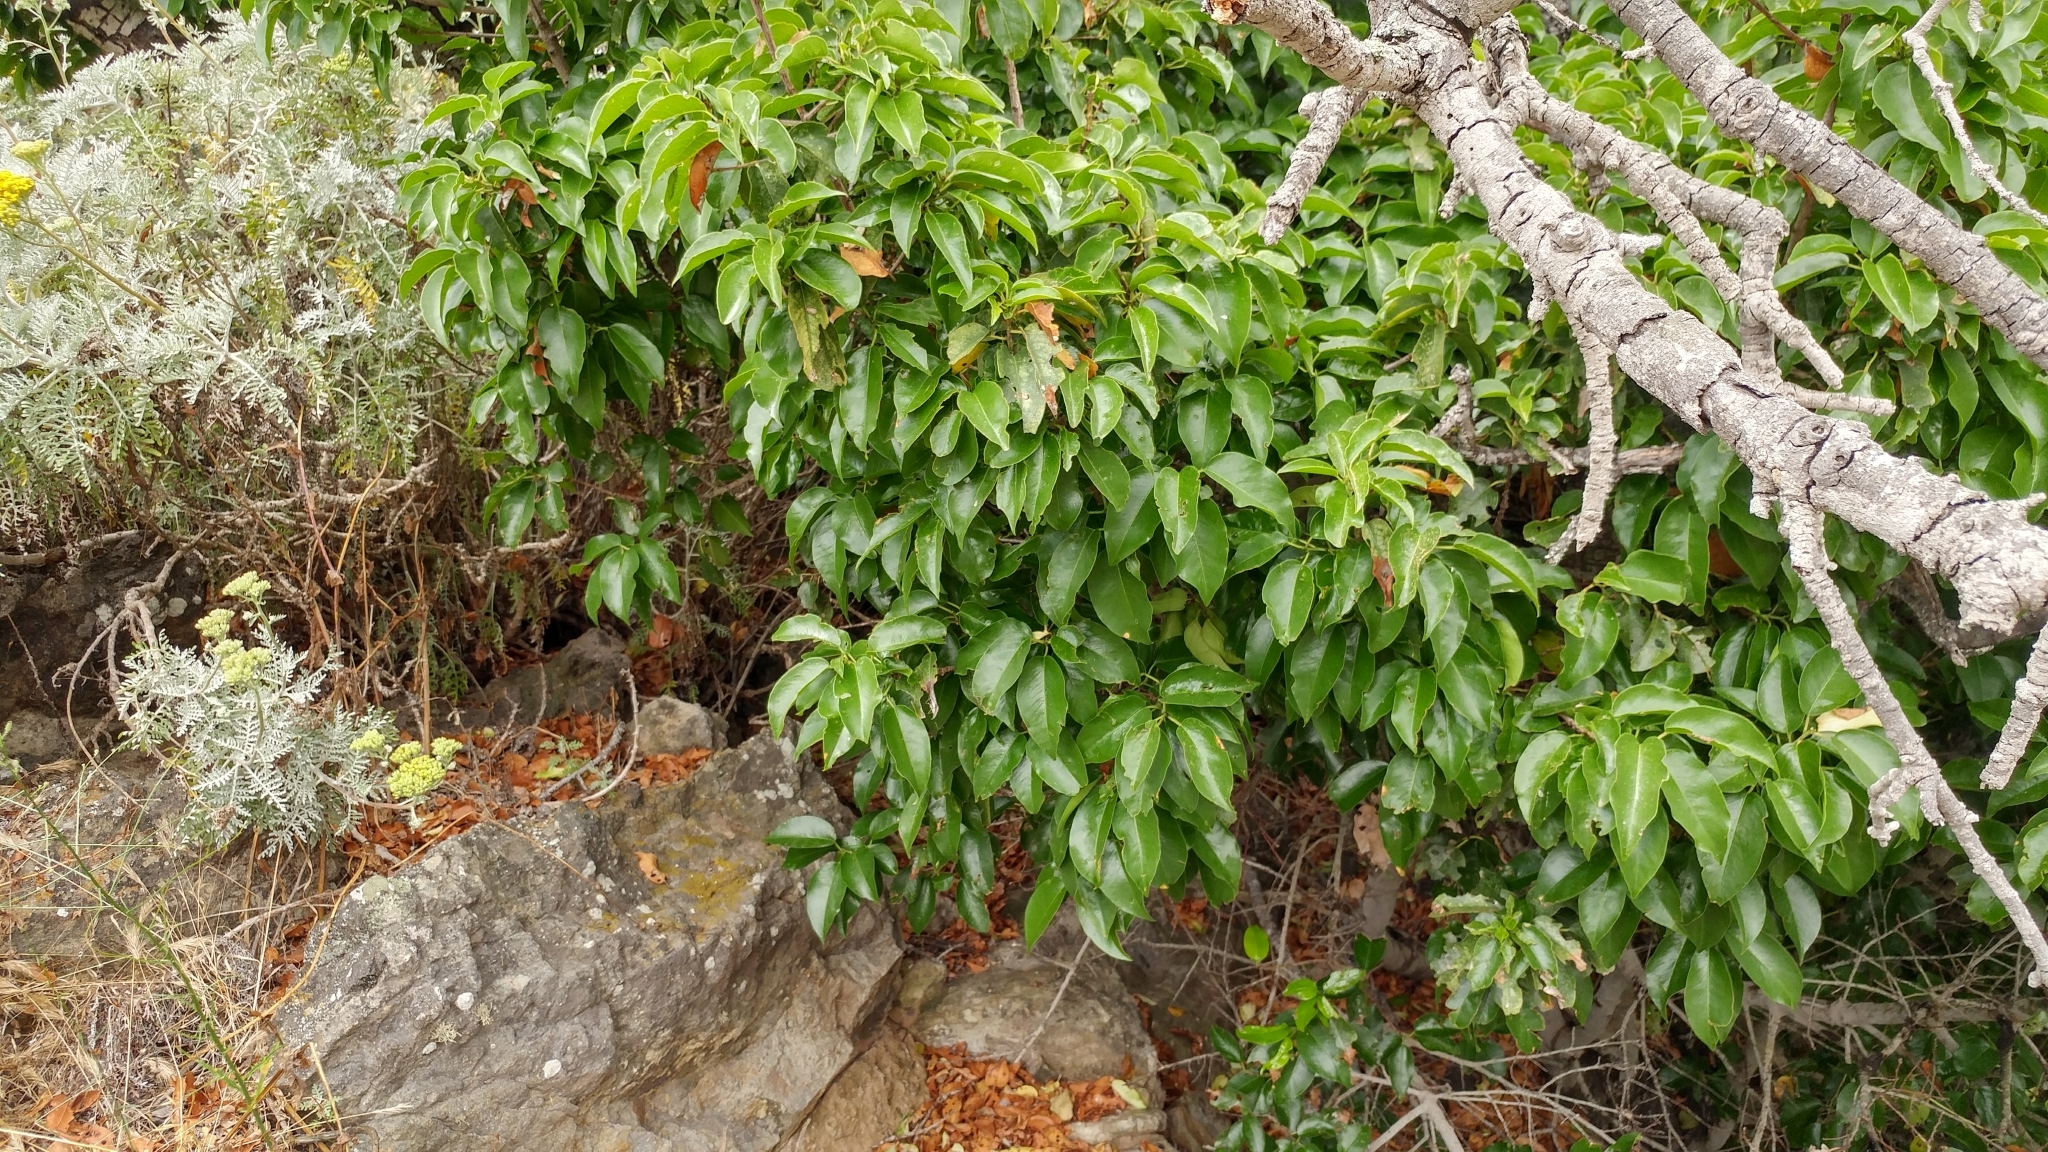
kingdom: Plantae
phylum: Tracheophyta
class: Magnoliopsida
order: Rosales
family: Rosaceae
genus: Prunus
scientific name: Prunus ilicifolia
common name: Hollyleaf cherry
